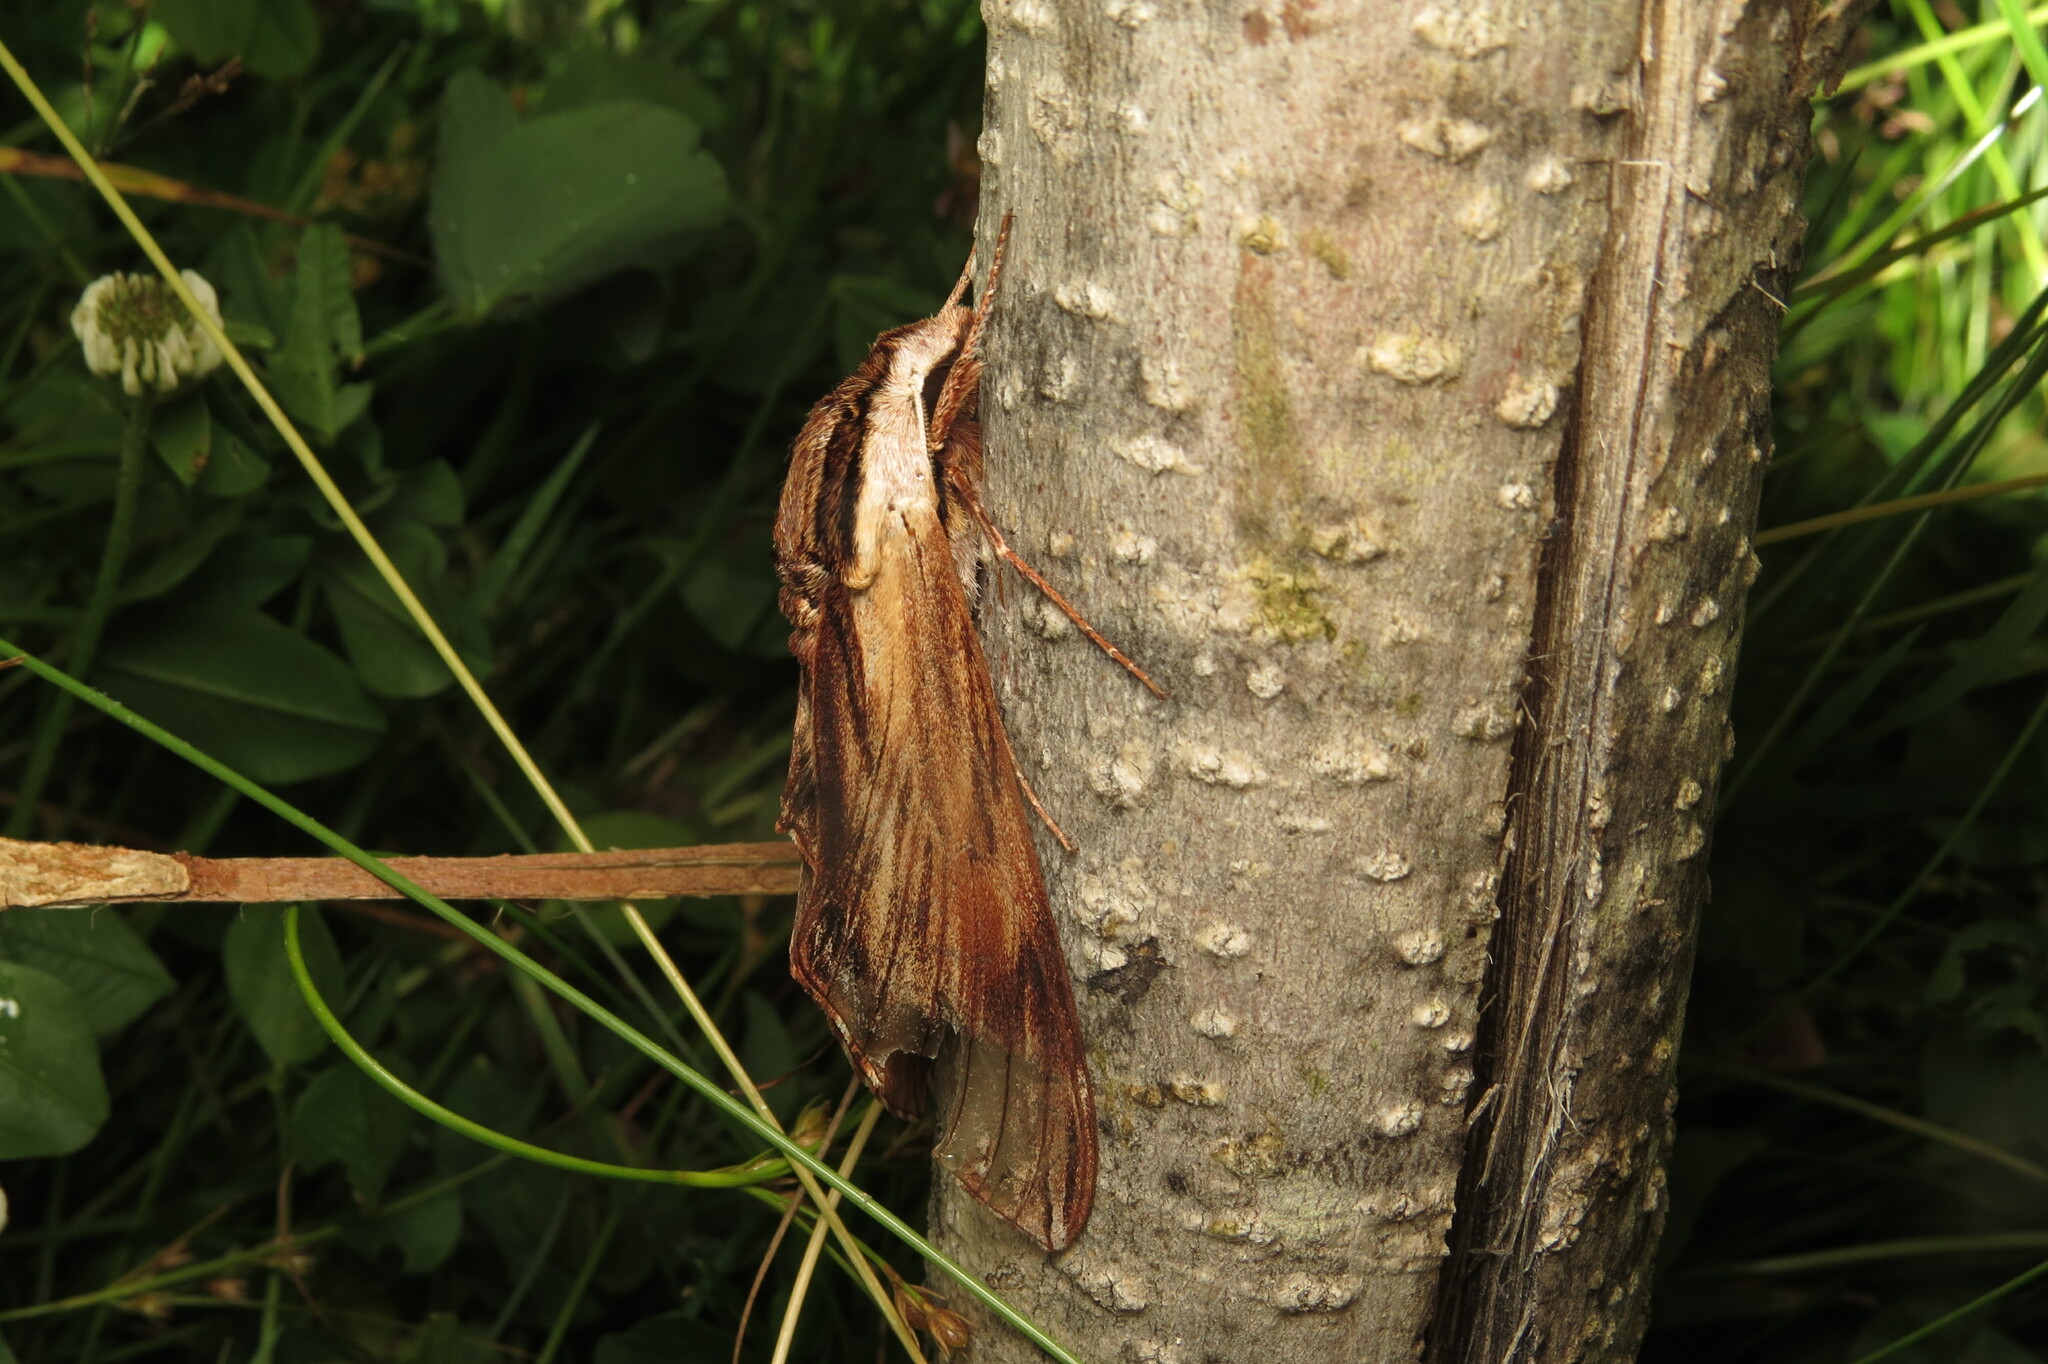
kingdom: Animalia
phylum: Arthropoda
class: Insecta
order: Lepidoptera
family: Sphingidae
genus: Sphinx
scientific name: Sphinx kalmiae
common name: Laurel sphinx
